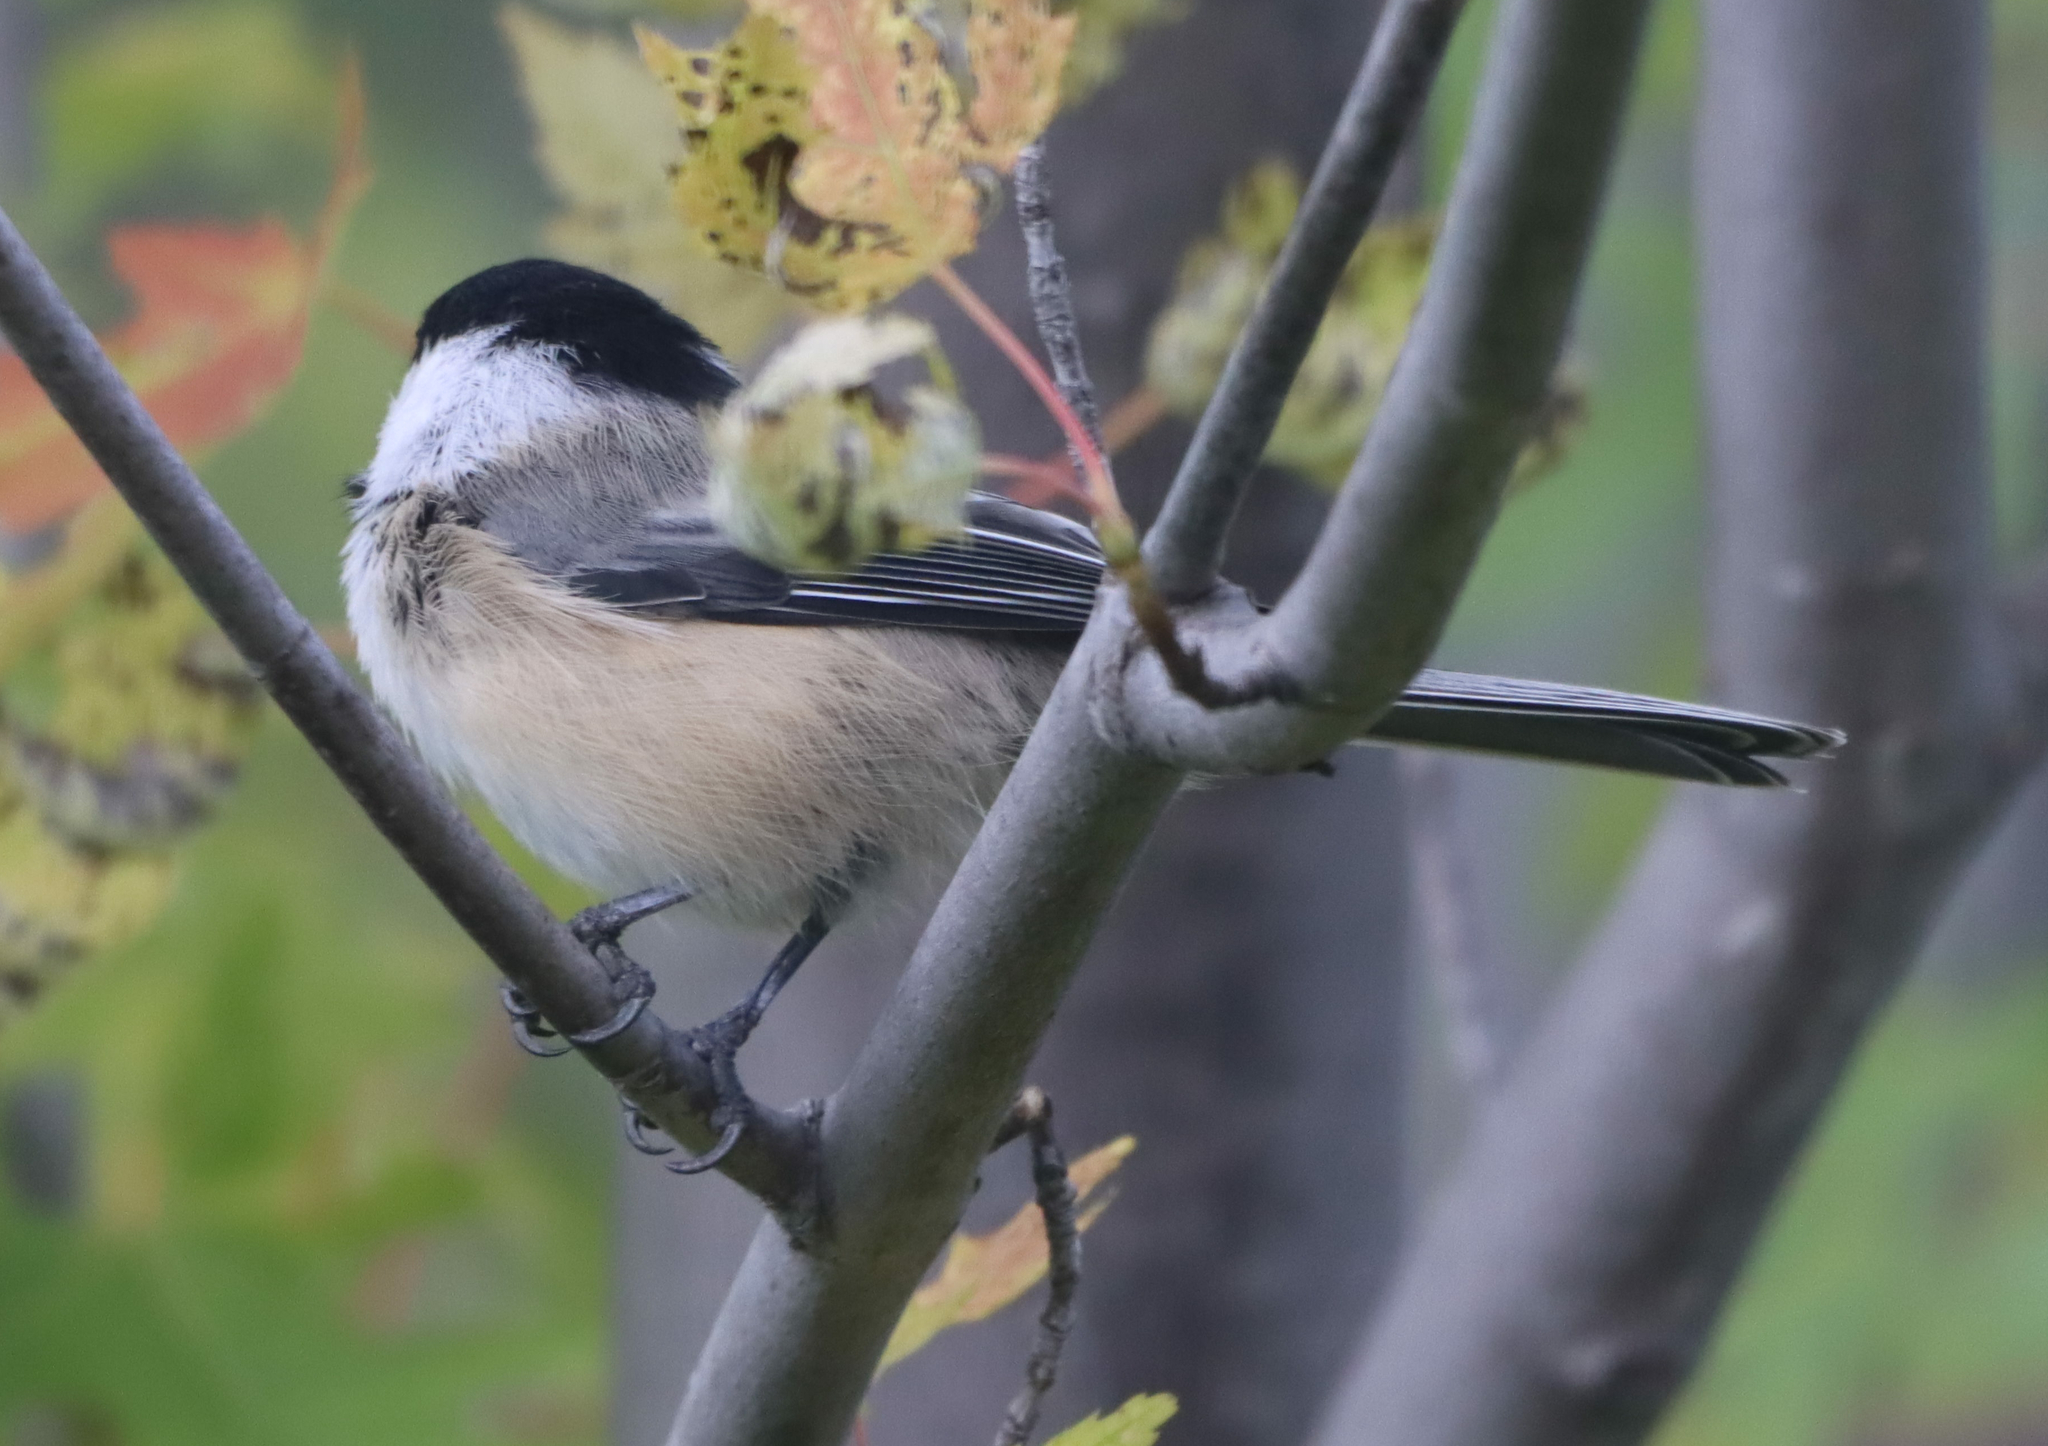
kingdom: Animalia
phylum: Chordata
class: Aves
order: Passeriformes
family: Paridae
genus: Poecile
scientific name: Poecile atricapillus
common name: Black-capped chickadee
